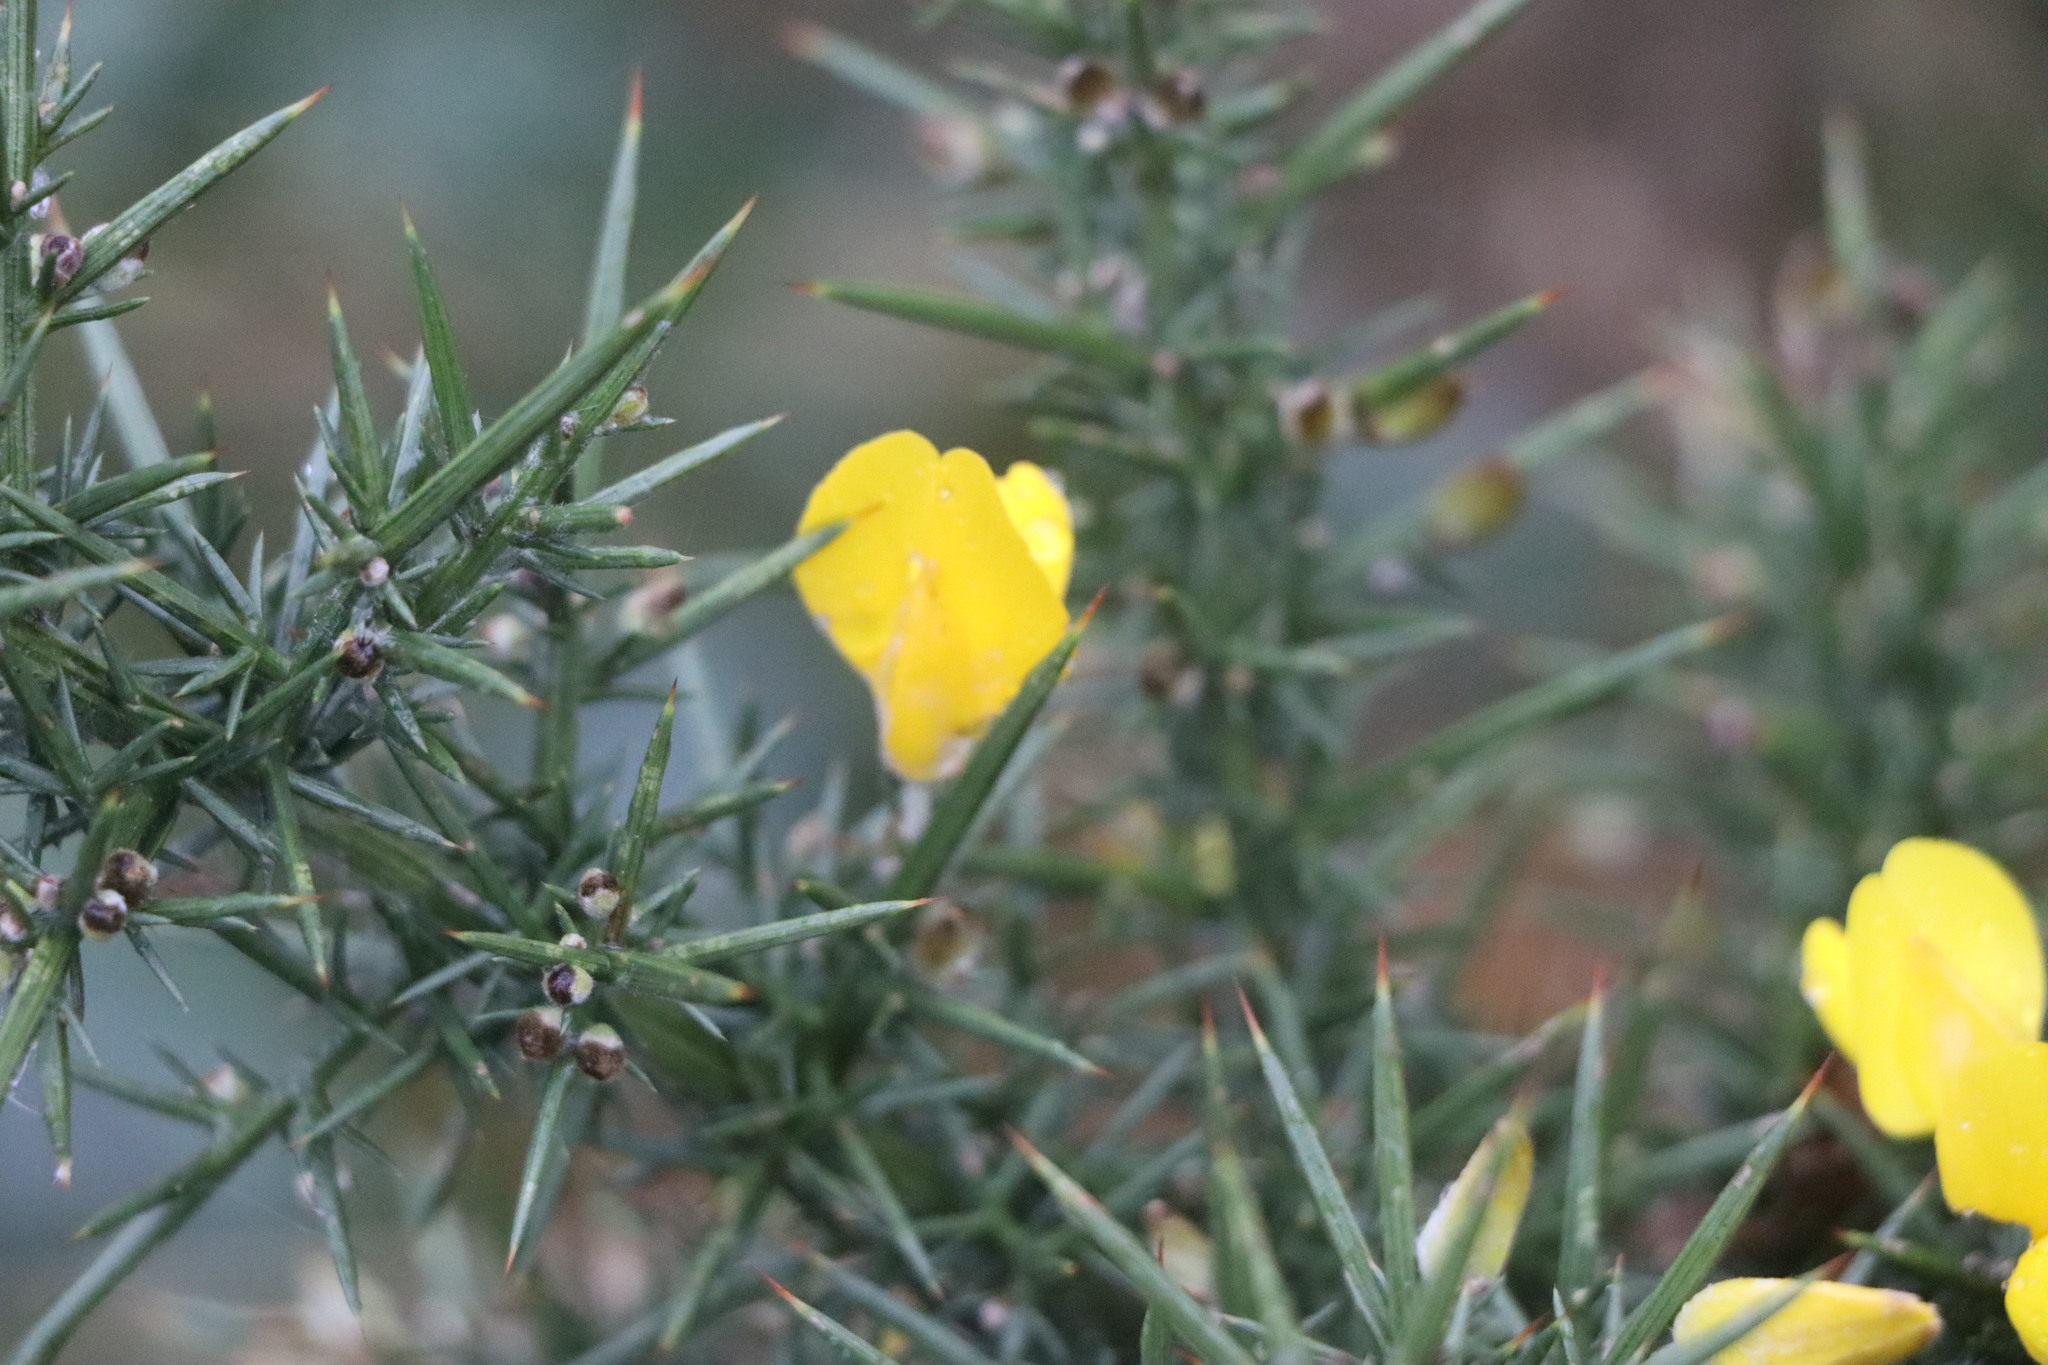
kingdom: Plantae
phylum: Tracheophyta
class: Magnoliopsida
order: Fabales
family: Fabaceae
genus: Ulex
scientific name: Ulex europaeus
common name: Common gorse
